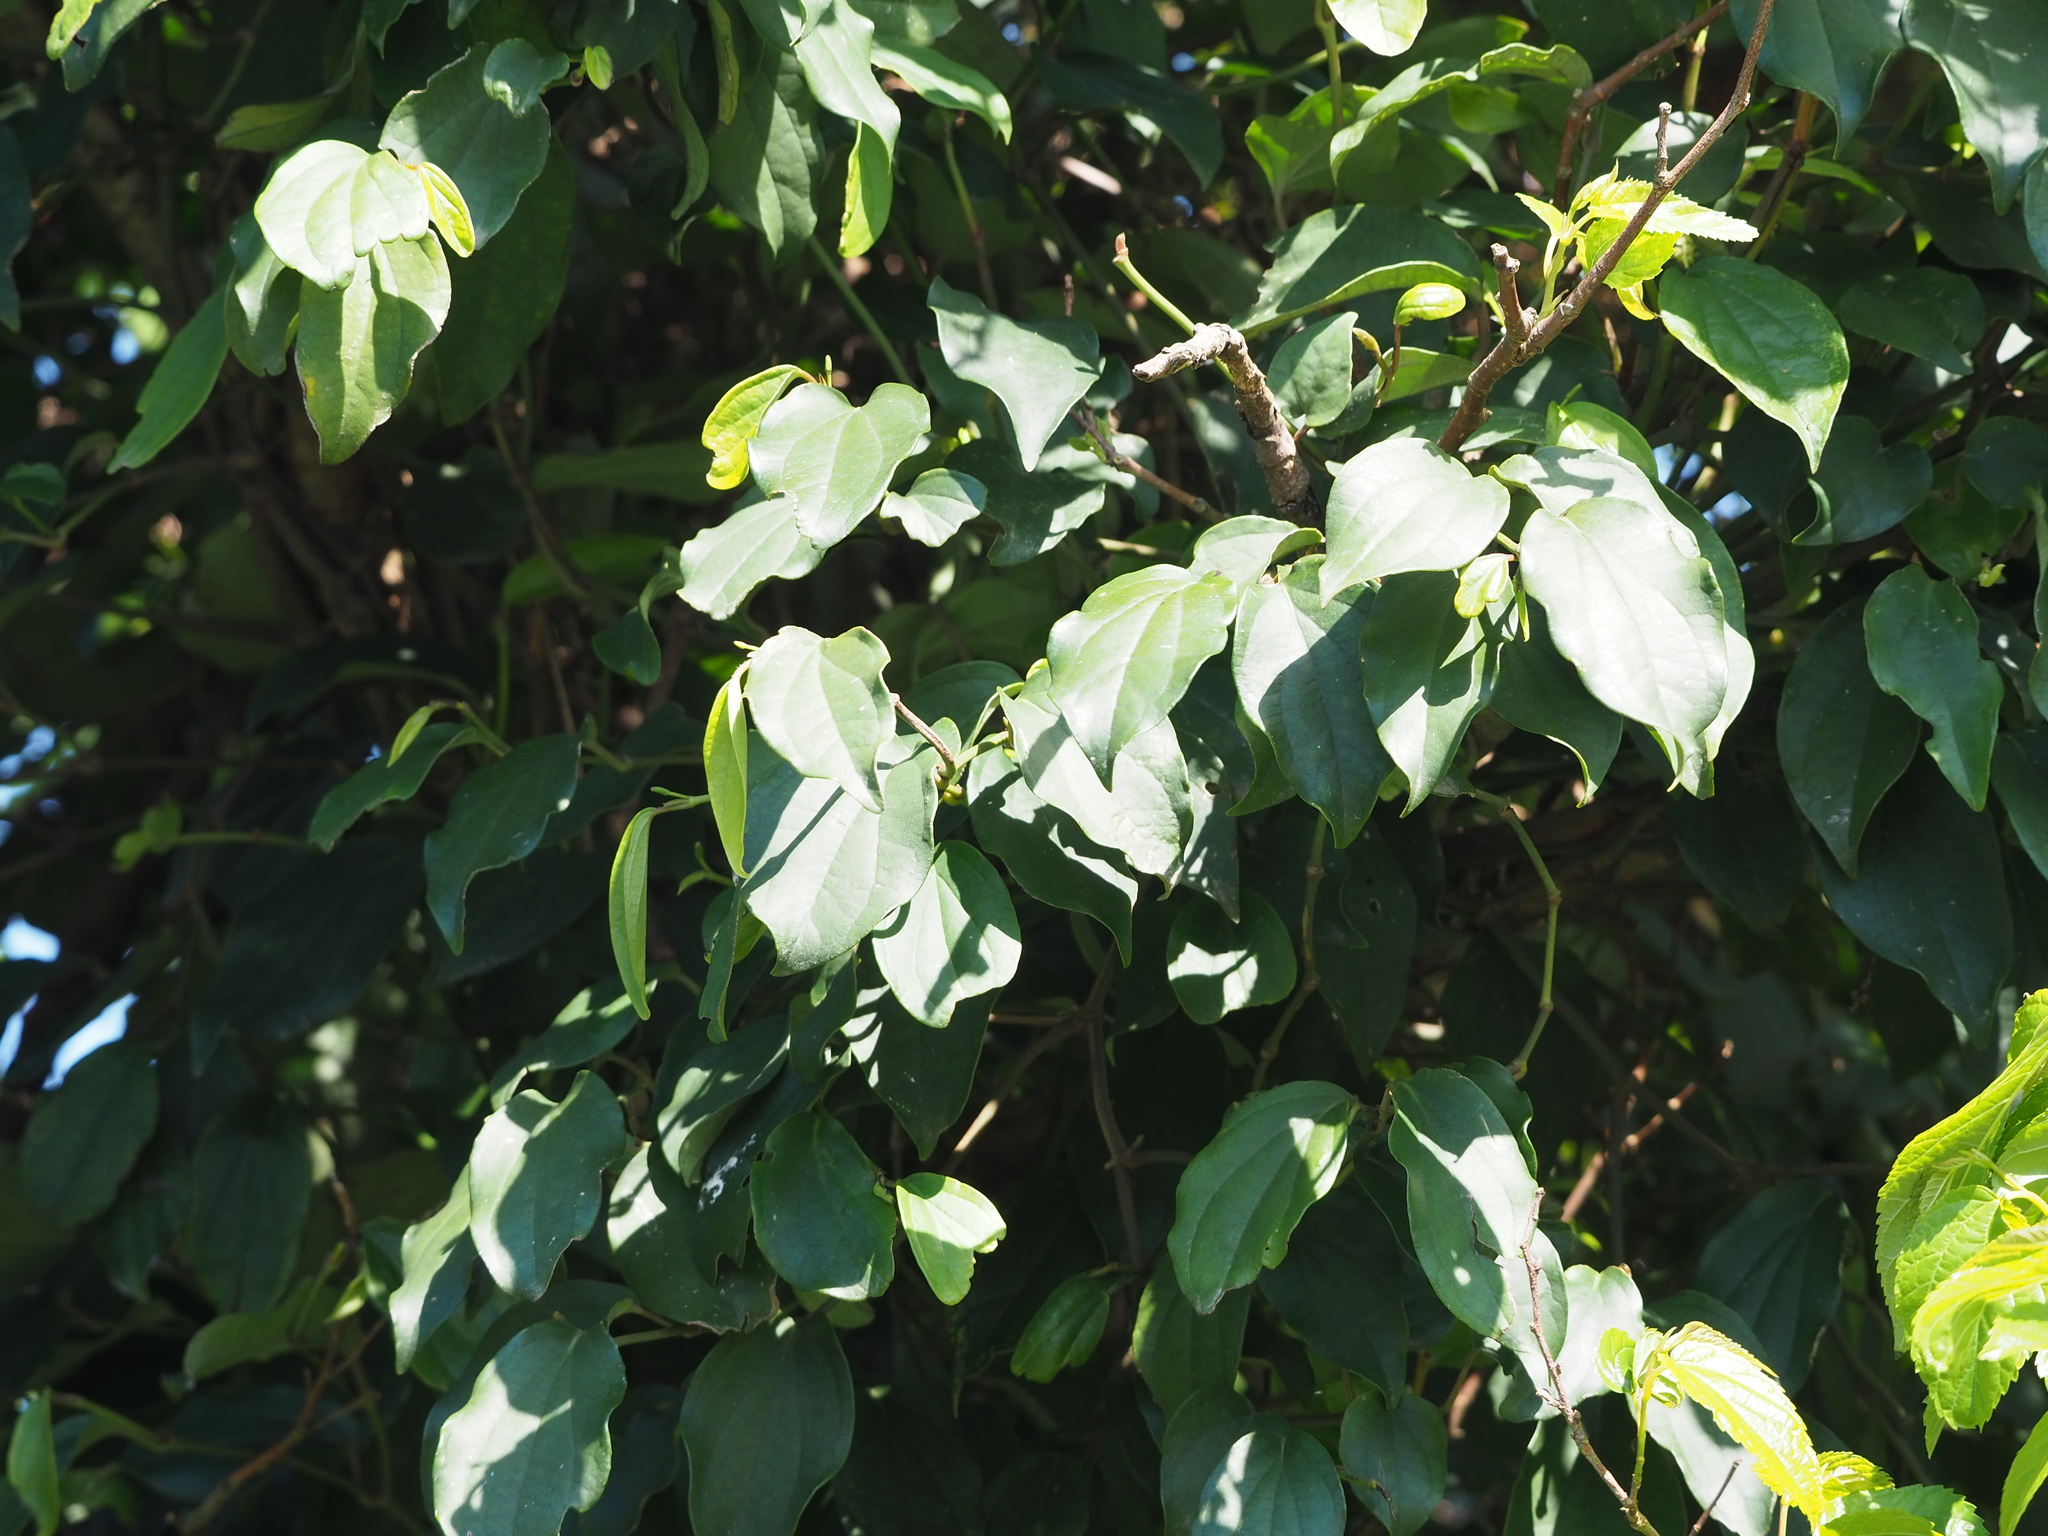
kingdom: Plantae
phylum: Tracheophyta
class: Magnoliopsida
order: Piperales
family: Piperaceae
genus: Piper
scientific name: Piper kadsura
